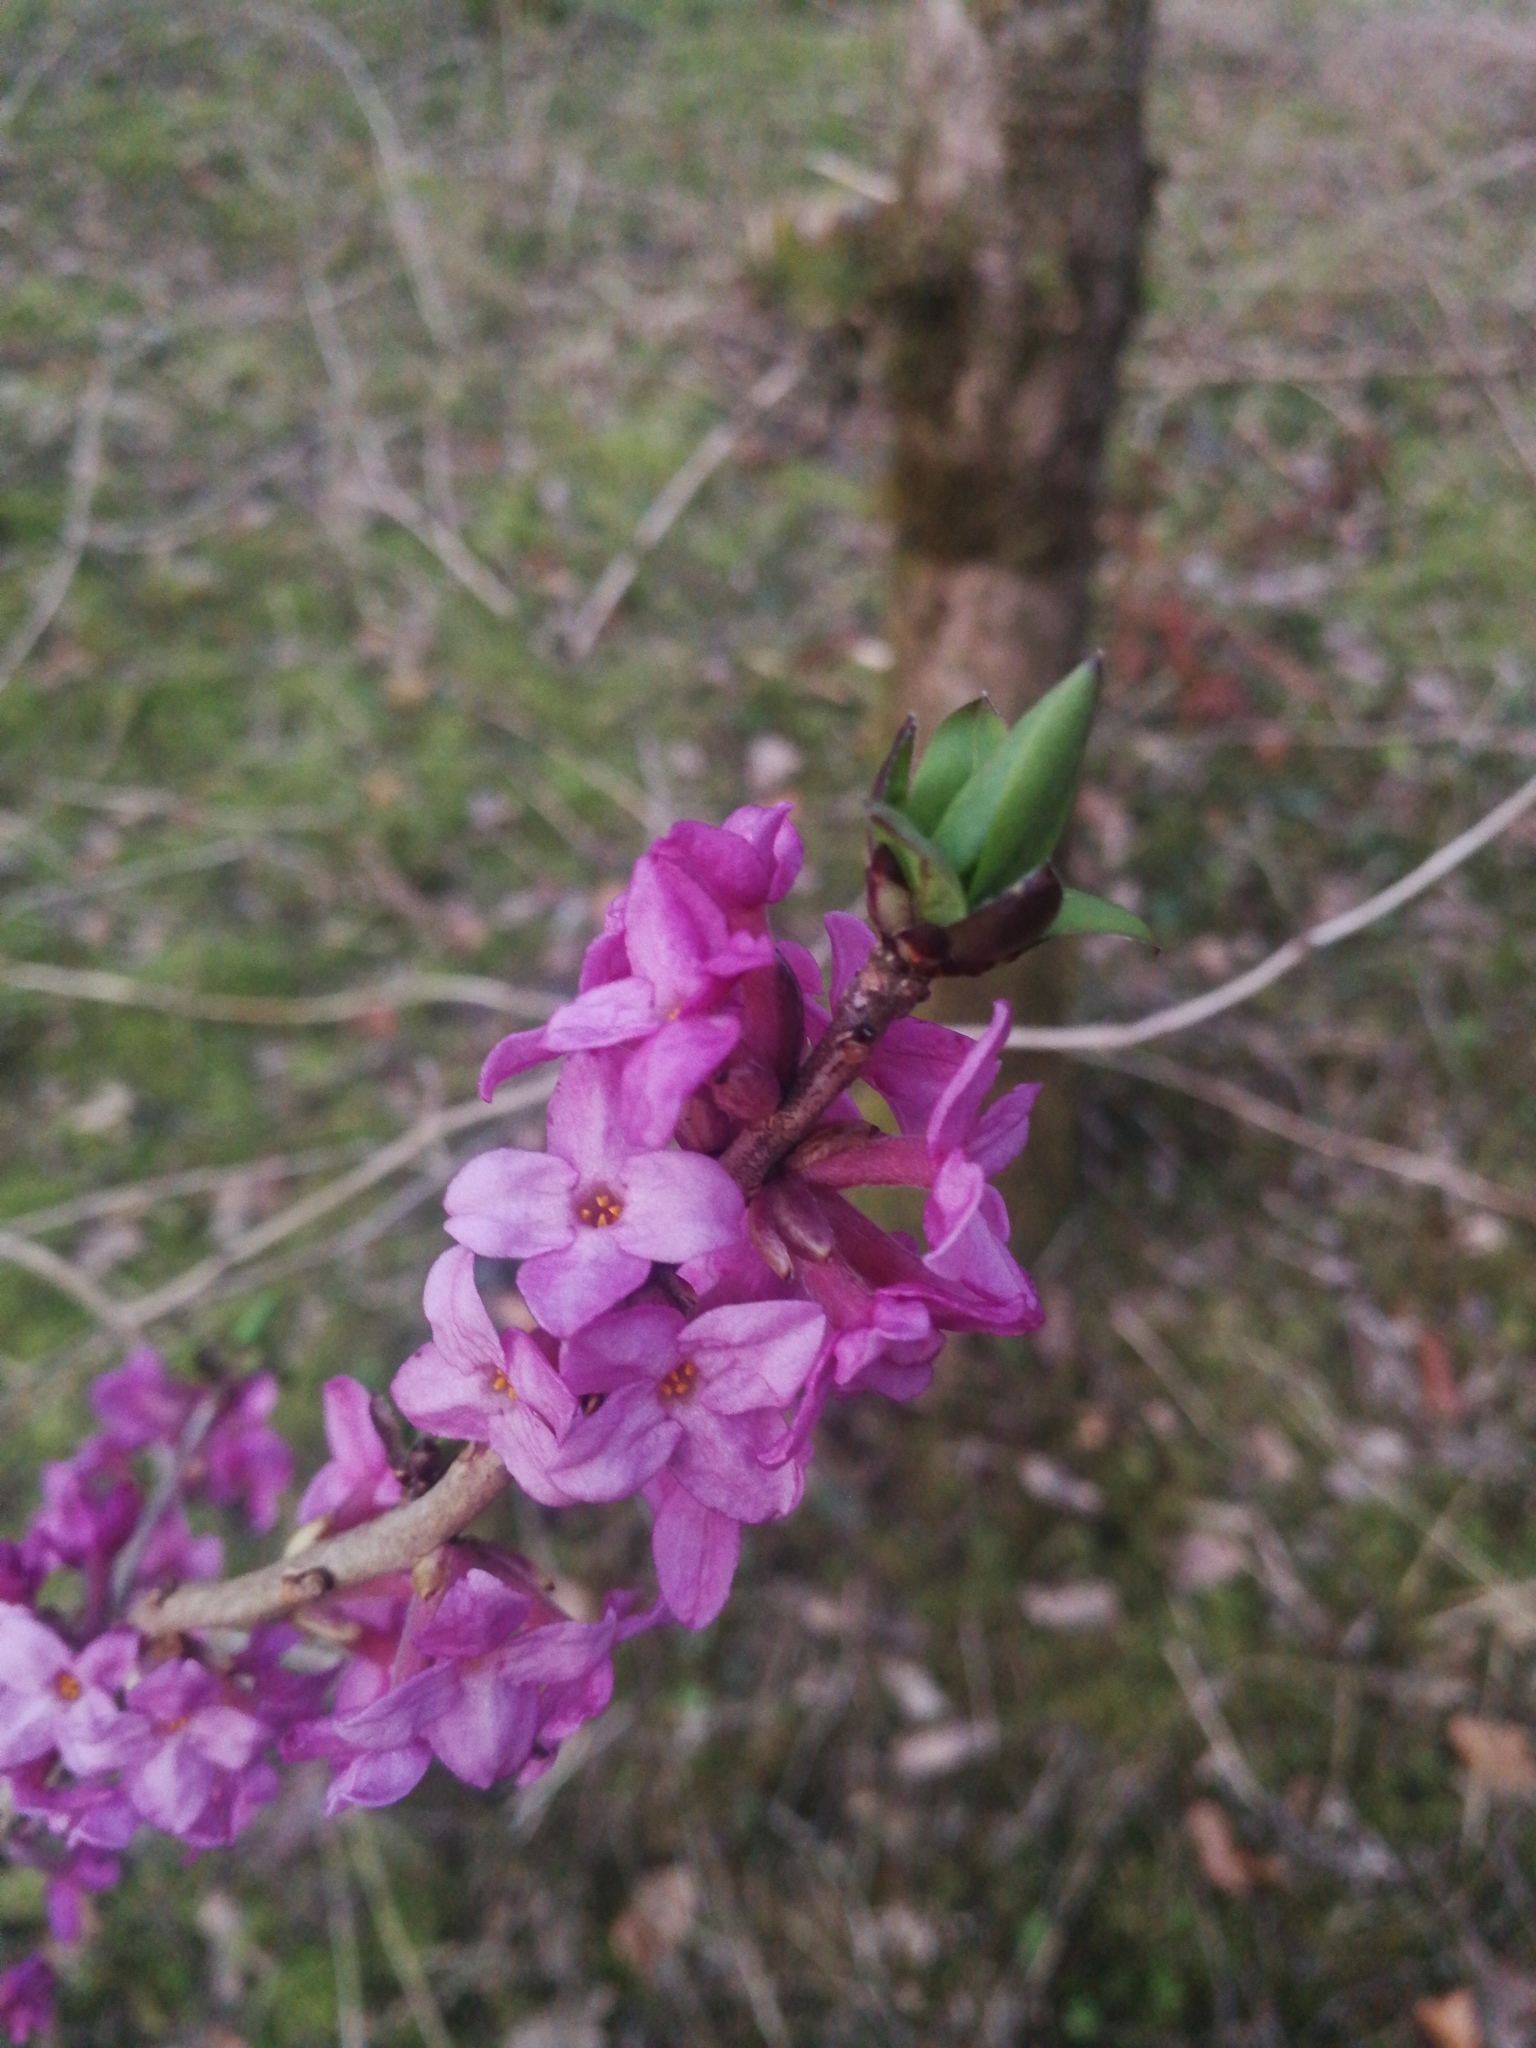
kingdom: Plantae
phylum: Tracheophyta
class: Magnoliopsida
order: Malvales
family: Thymelaeaceae
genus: Daphne
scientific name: Daphne mezereum
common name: Mezereon
